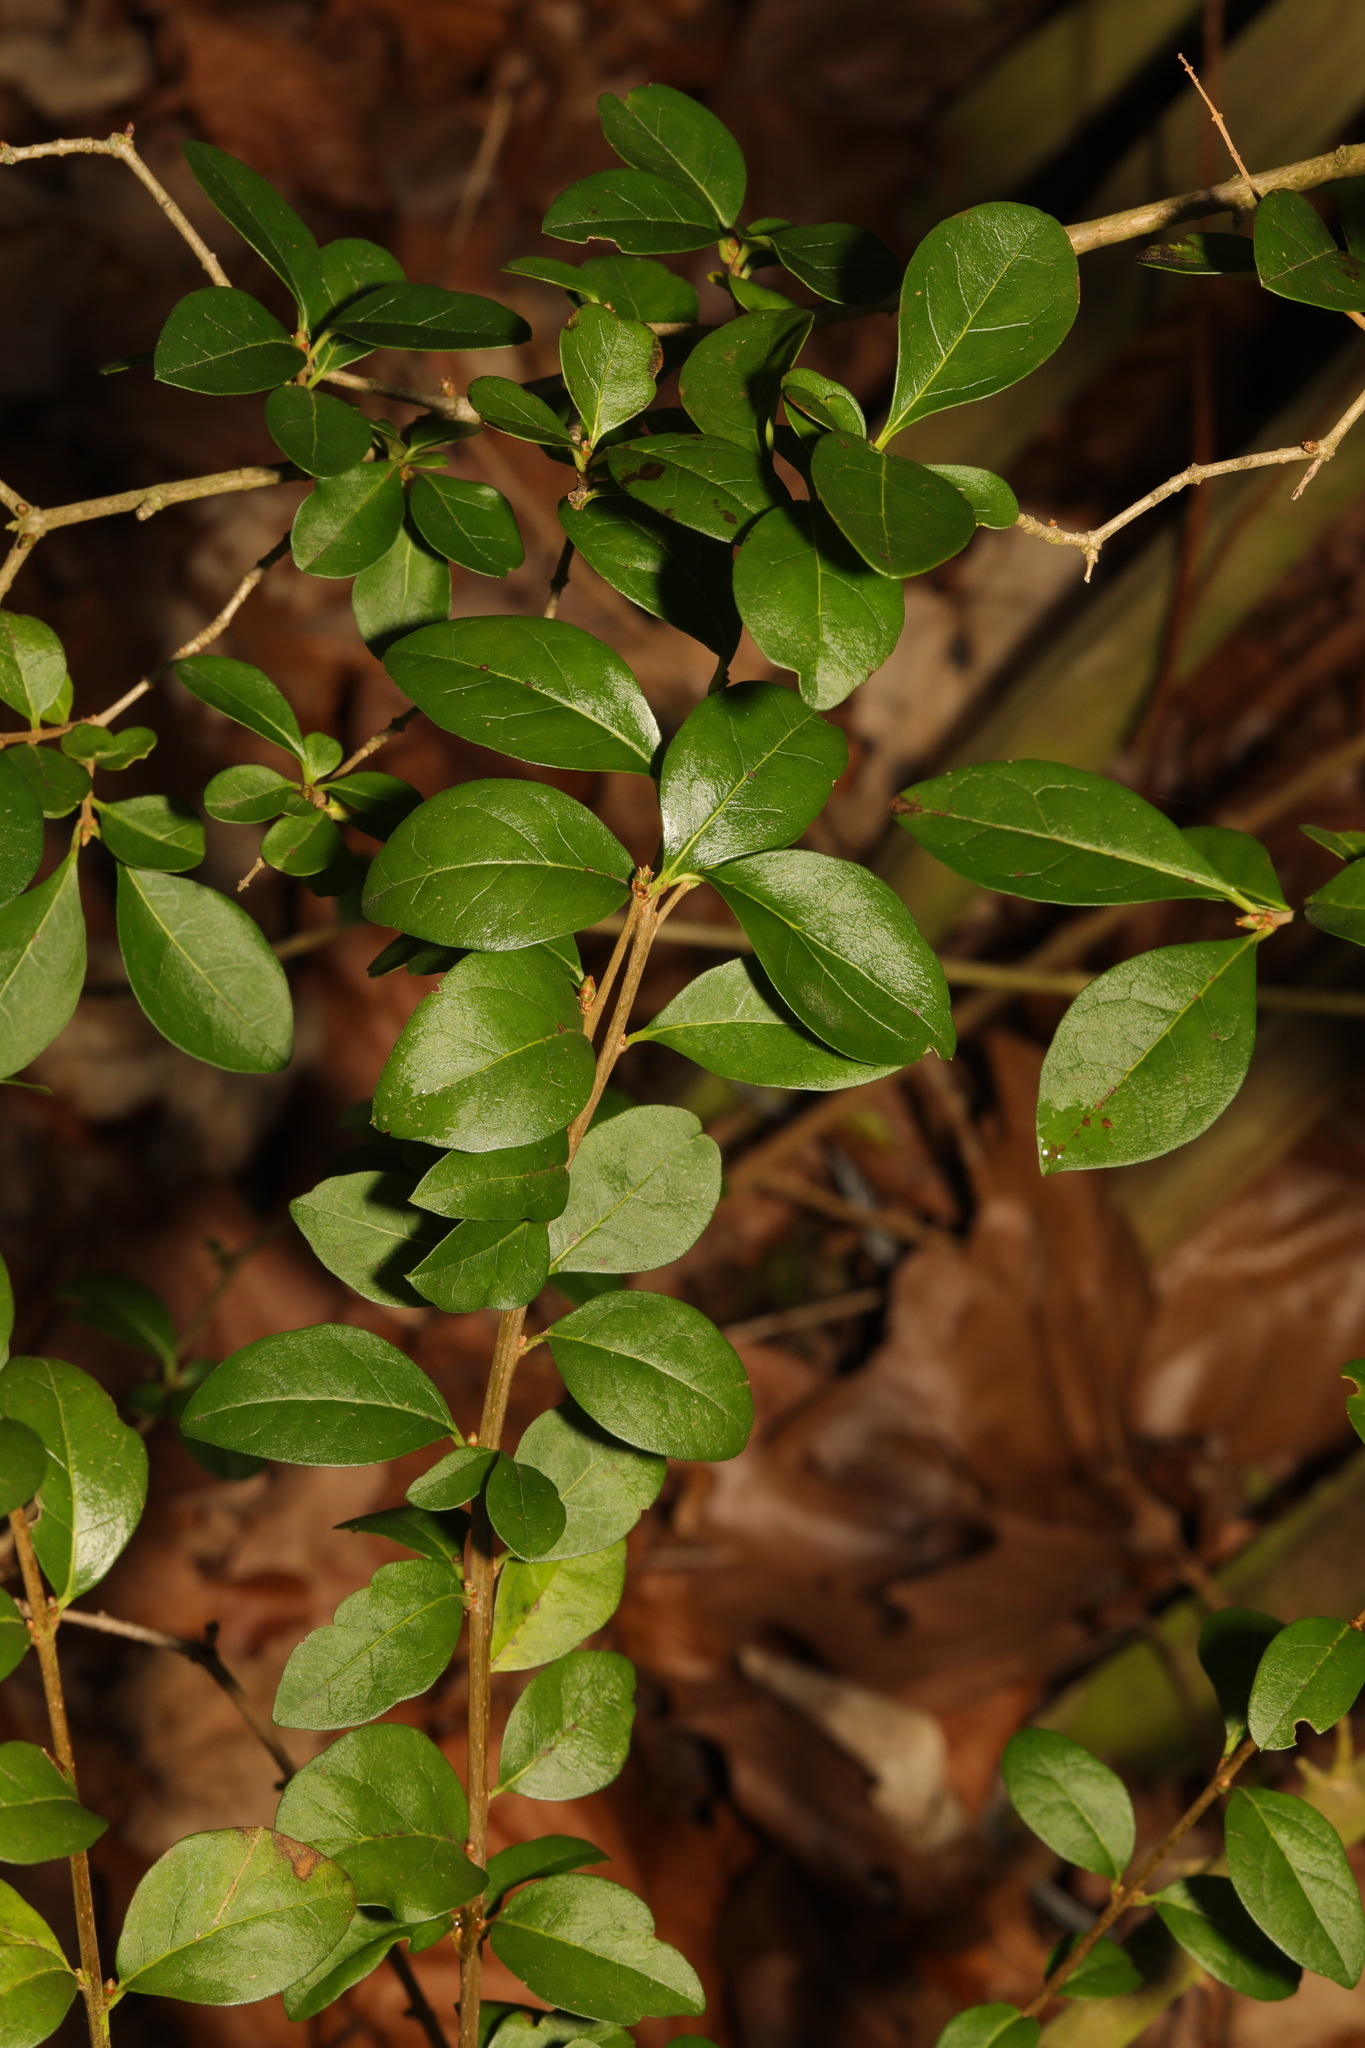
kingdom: Plantae
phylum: Tracheophyta
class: Magnoliopsida
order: Lamiales
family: Oleaceae
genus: Ligustrum
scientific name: Ligustrum ovalifolium
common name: California privet
